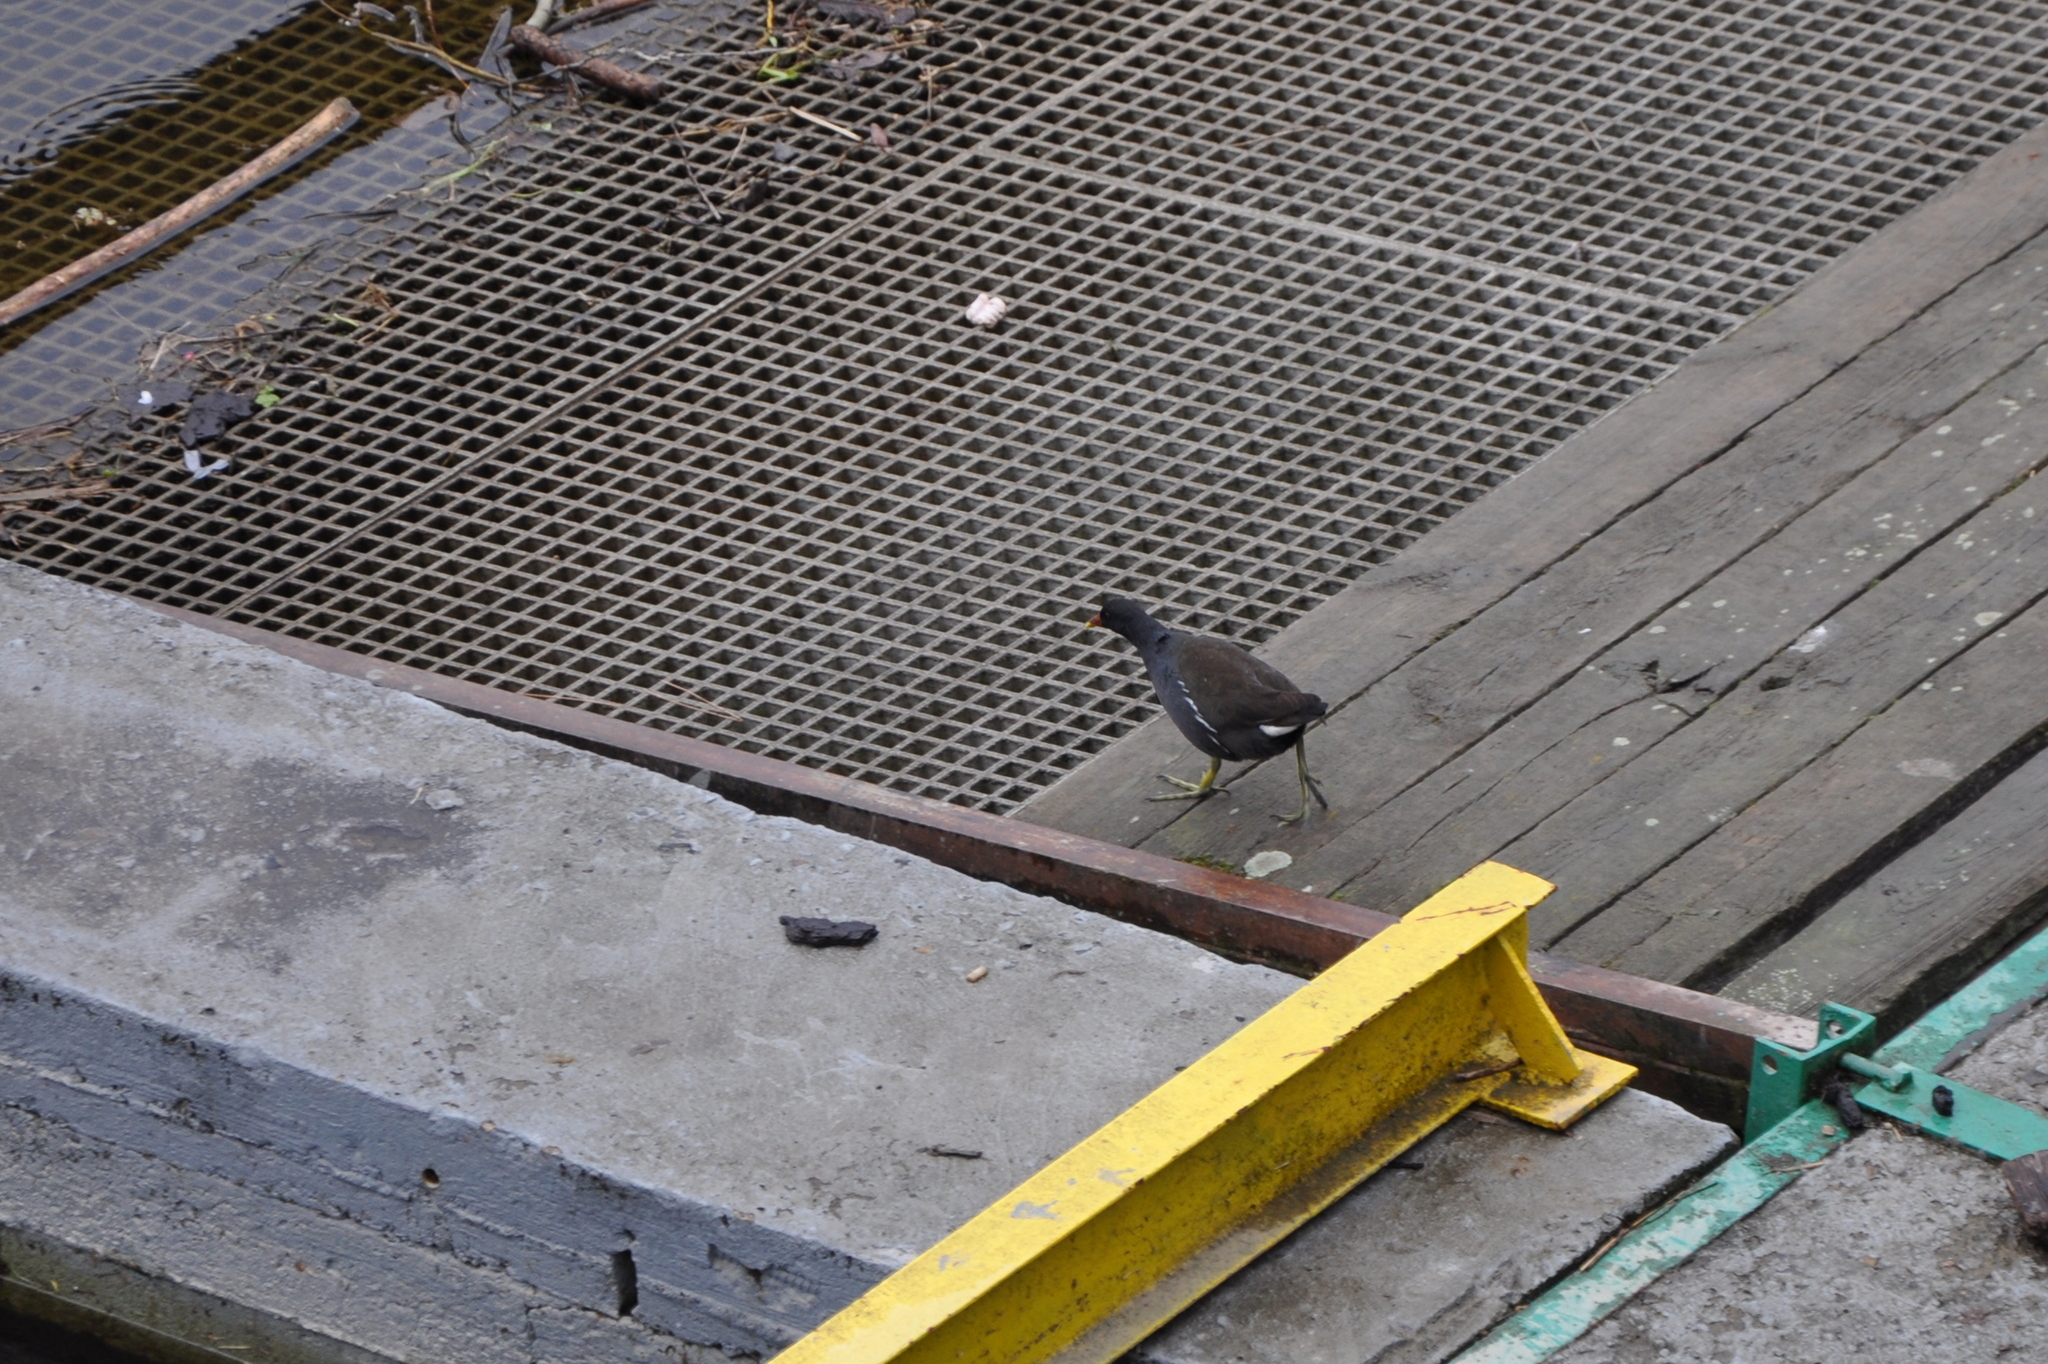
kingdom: Animalia
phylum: Chordata
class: Aves
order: Gruiformes
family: Rallidae
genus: Gallinula
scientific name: Gallinula chloropus
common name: Common moorhen
